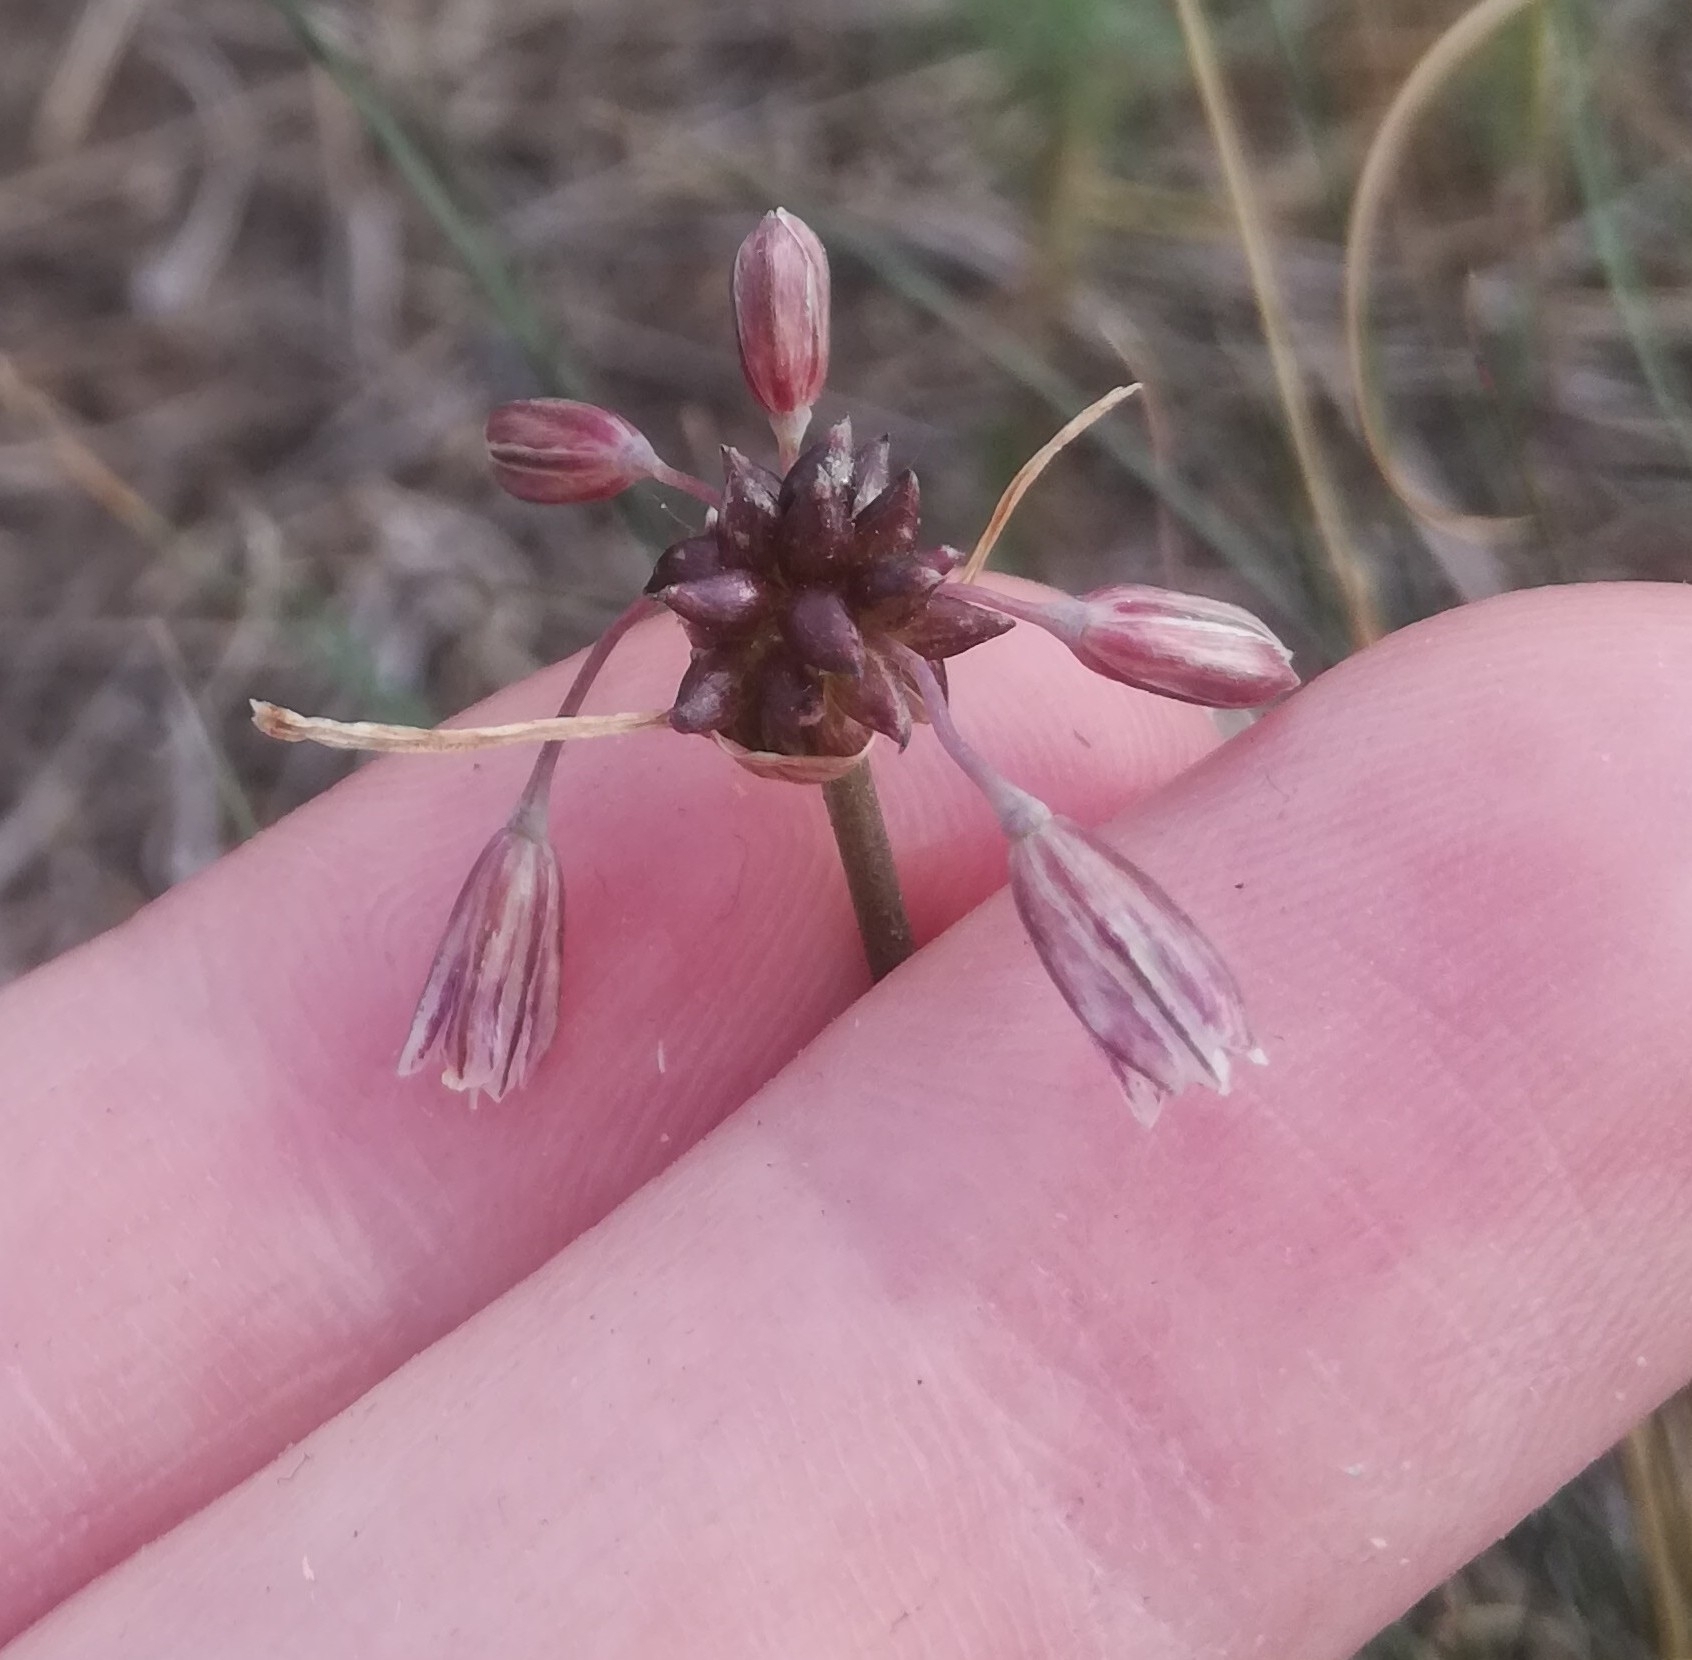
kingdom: Plantae
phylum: Tracheophyta
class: Liliopsida
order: Asparagales
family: Amaryllidaceae
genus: Allium
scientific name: Allium oleraceum
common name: Field garlic
